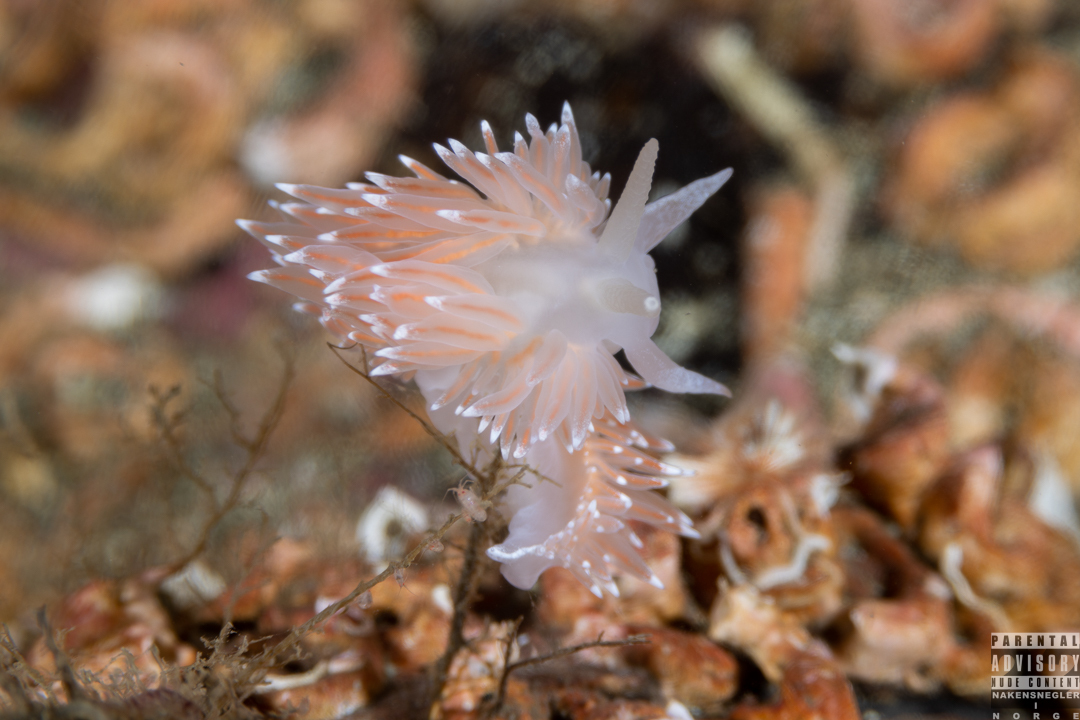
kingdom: Animalia
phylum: Mollusca
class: Gastropoda
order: Nudibranchia
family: Coryphellidae
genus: Coryphella
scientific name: Coryphella nobilis
